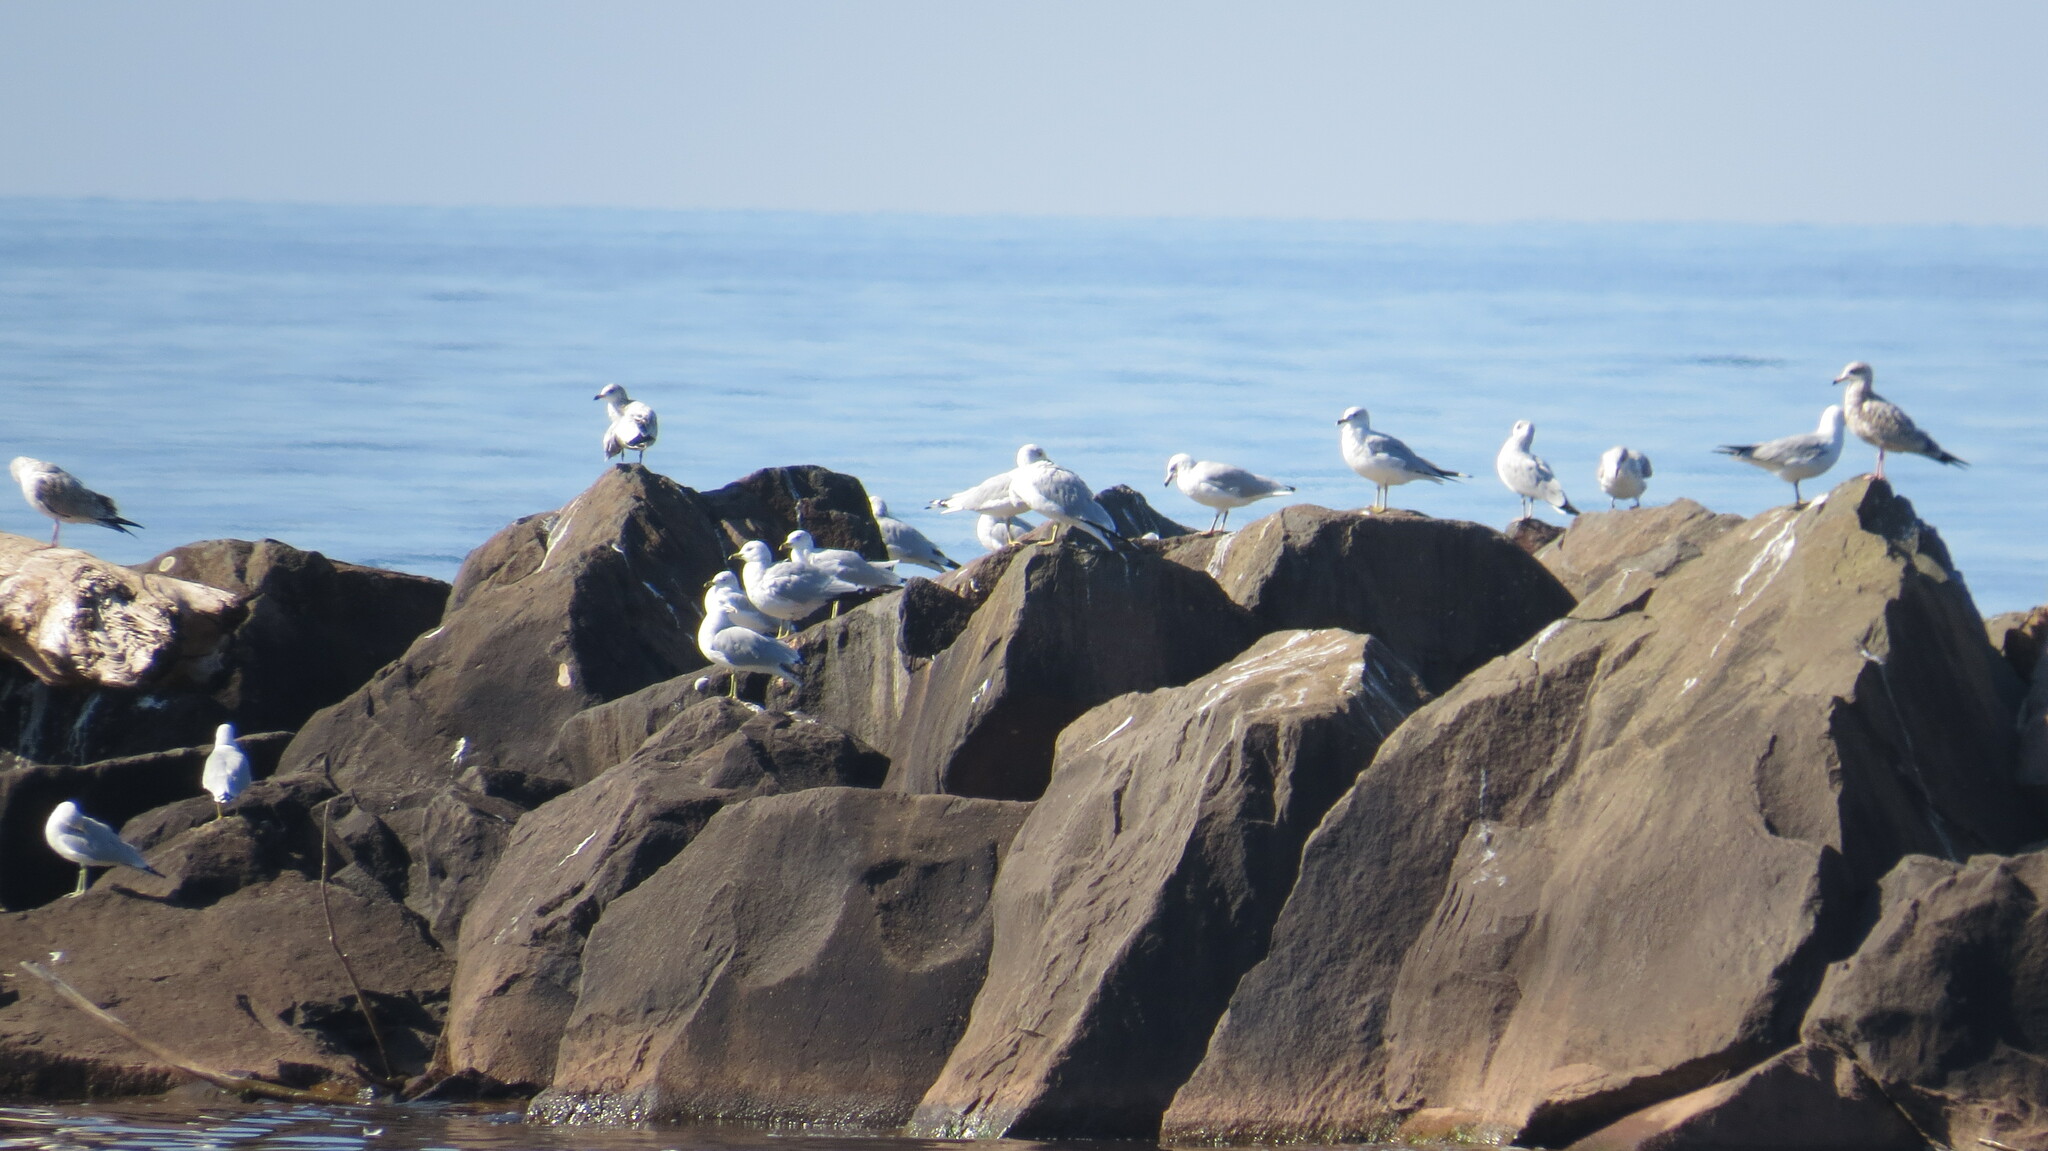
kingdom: Animalia
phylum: Chordata
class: Aves
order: Charadriiformes
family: Laridae
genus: Larus
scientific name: Larus delawarensis
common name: Ring-billed gull
